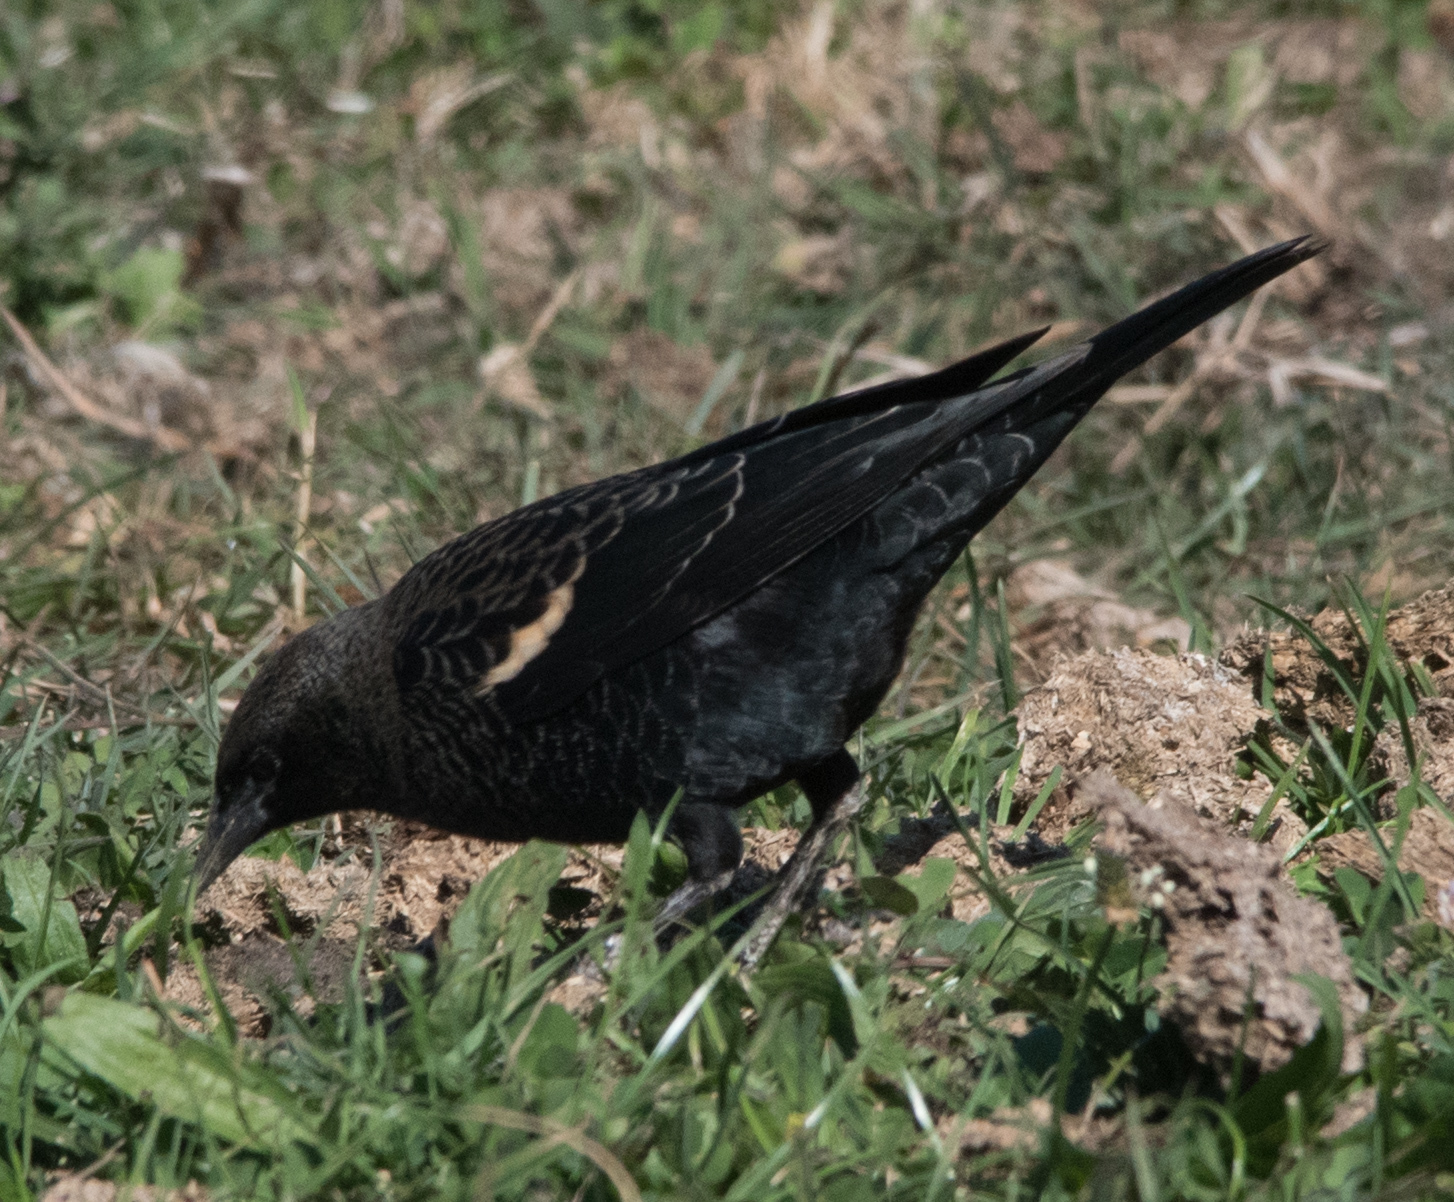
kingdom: Animalia
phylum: Chordata
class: Aves
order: Passeriformes
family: Icteridae
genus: Agelaius
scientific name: Agelaius tricolor
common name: Tricolored blackbird
